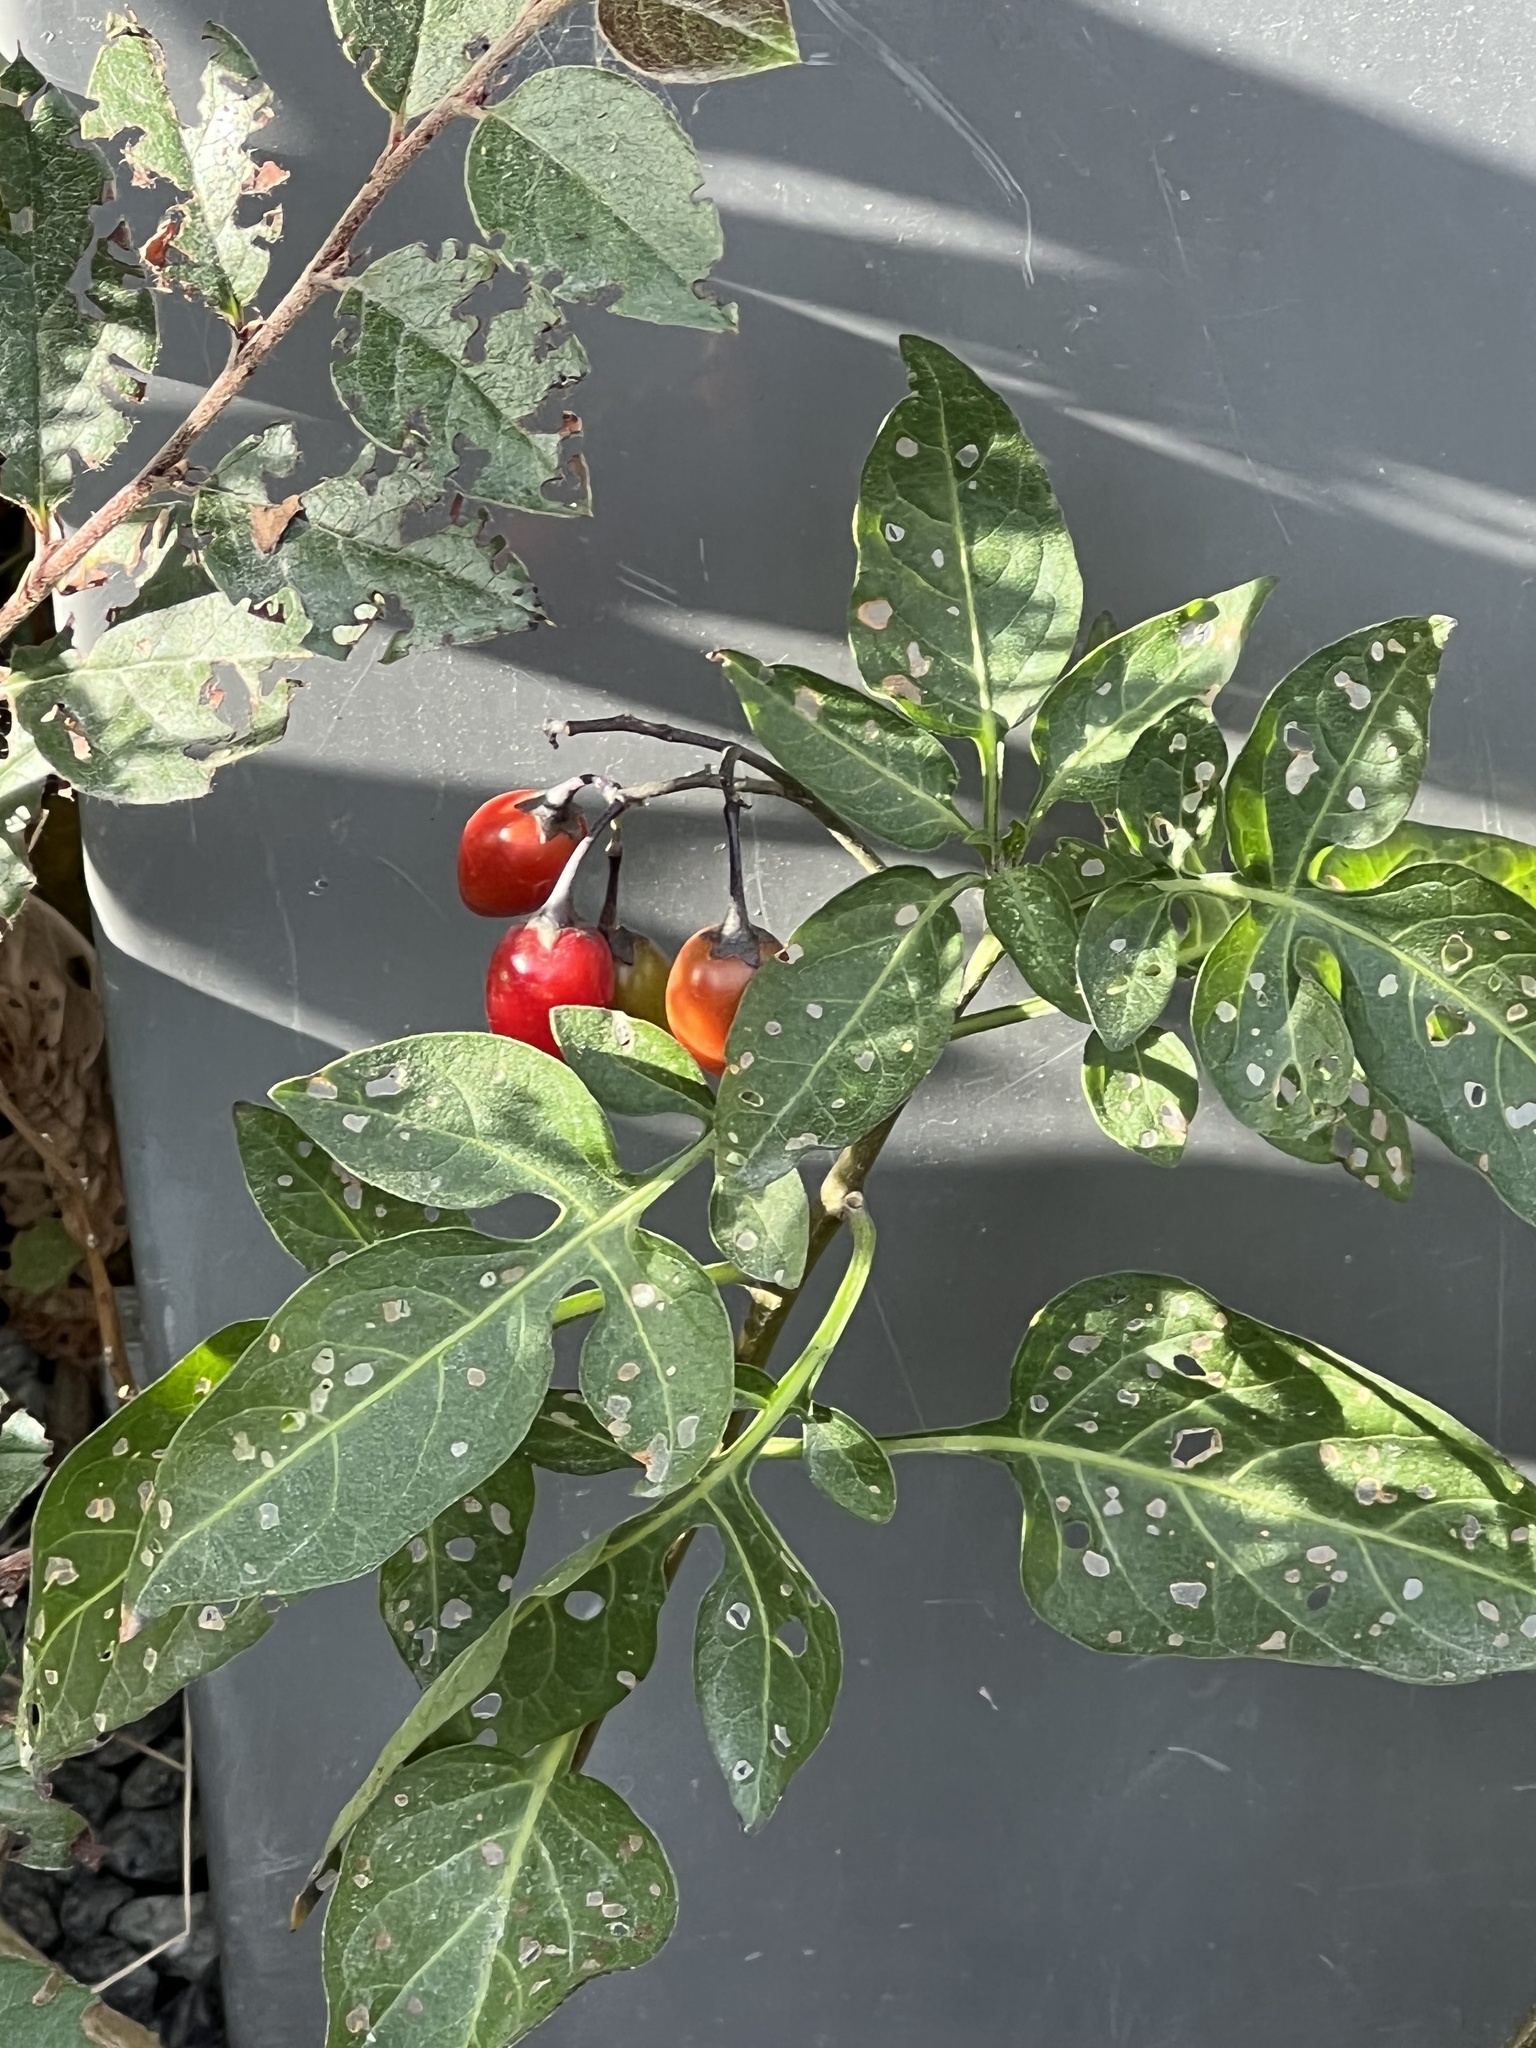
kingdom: Plantae
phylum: Tracheophyta
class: Magnoliopsida
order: Solanales
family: Solanaceae
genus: Solanum
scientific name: Solanum dulcamara
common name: Climbing nightshade
